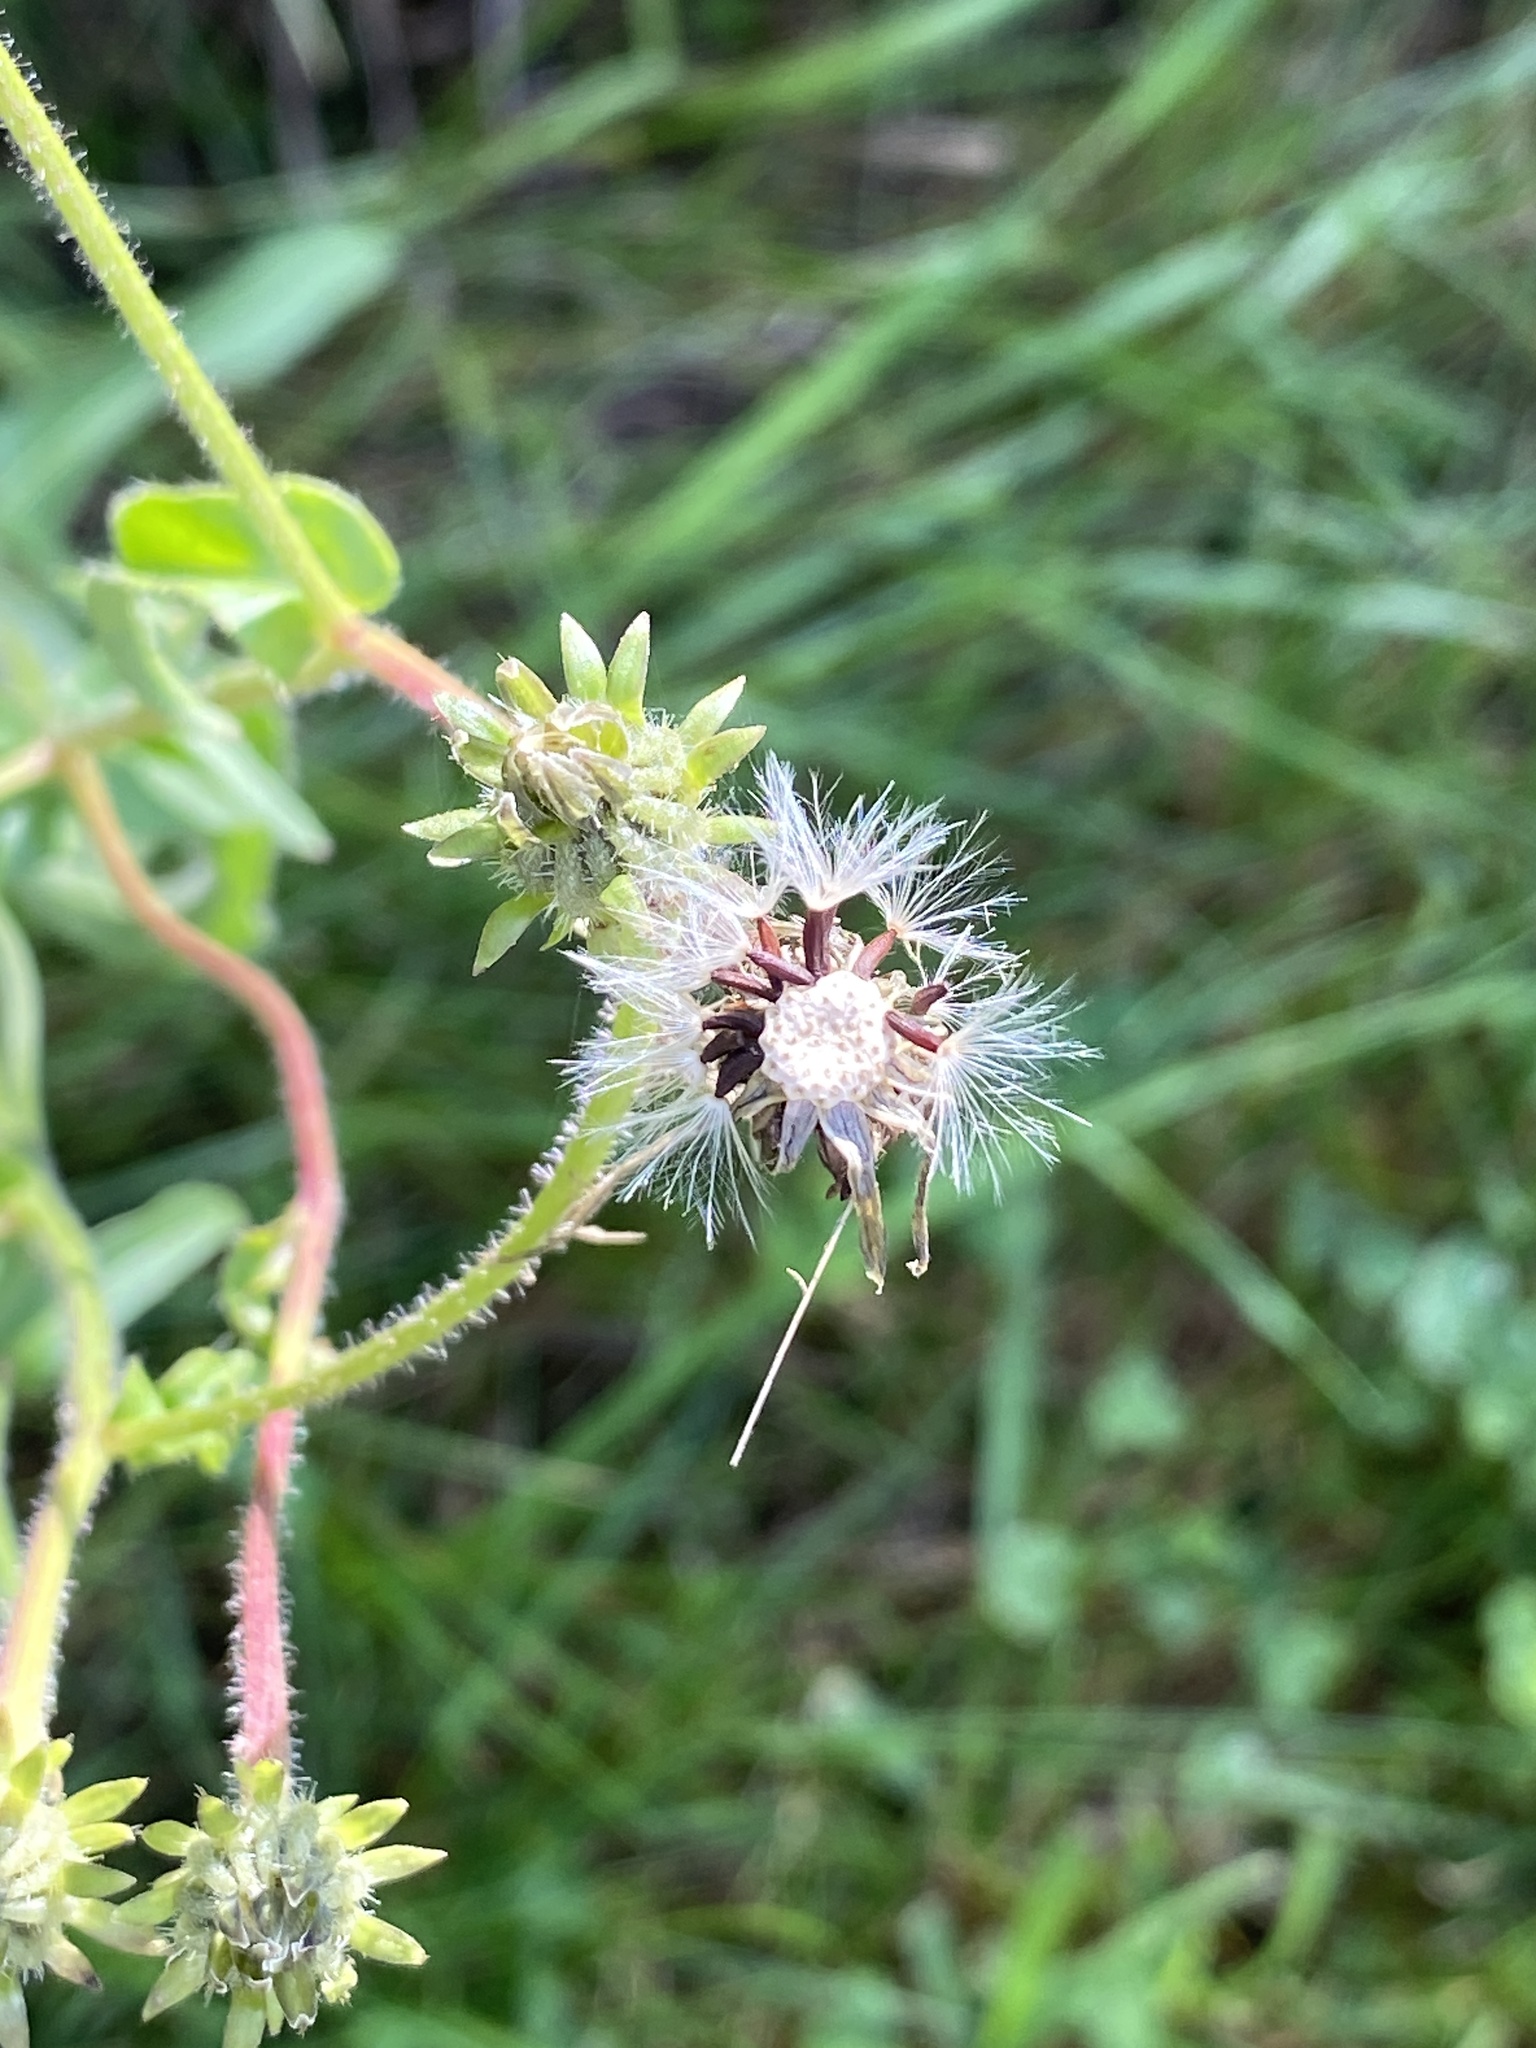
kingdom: Plantae
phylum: Tracheophyta
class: Magnoliopsida
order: Asterales
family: Asteraceae
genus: Picris
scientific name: Picris hieracioides
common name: Hawkweed oxtongue
